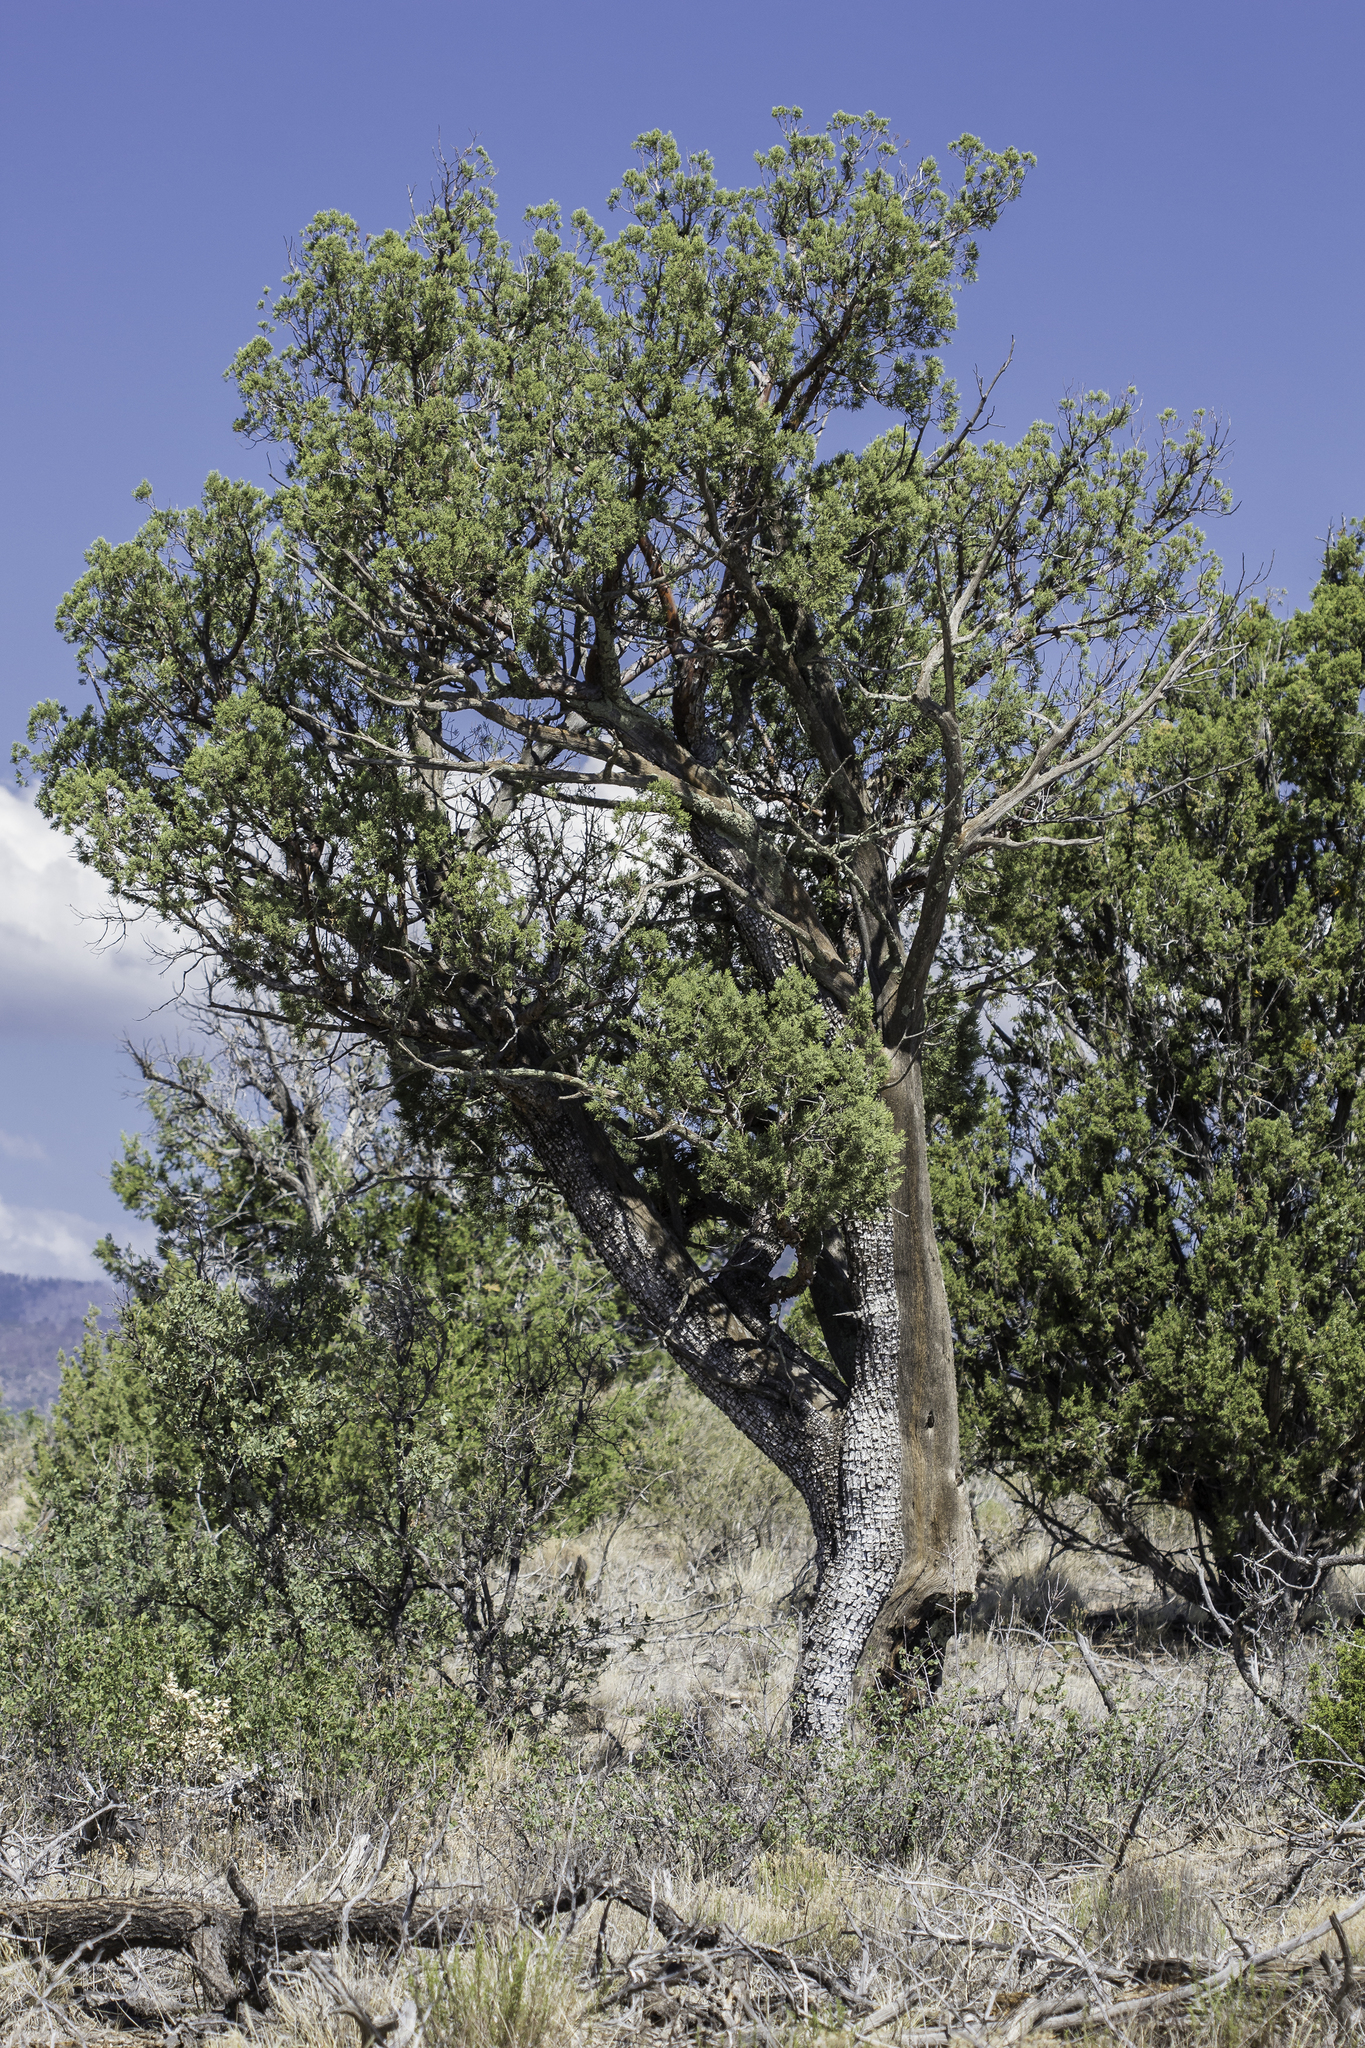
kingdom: Plantae
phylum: Tracheophyta
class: Pinopsida
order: Pinales
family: Cupressaceae
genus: Juniperus
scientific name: Juniperus deppeana
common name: Alligator juniper
